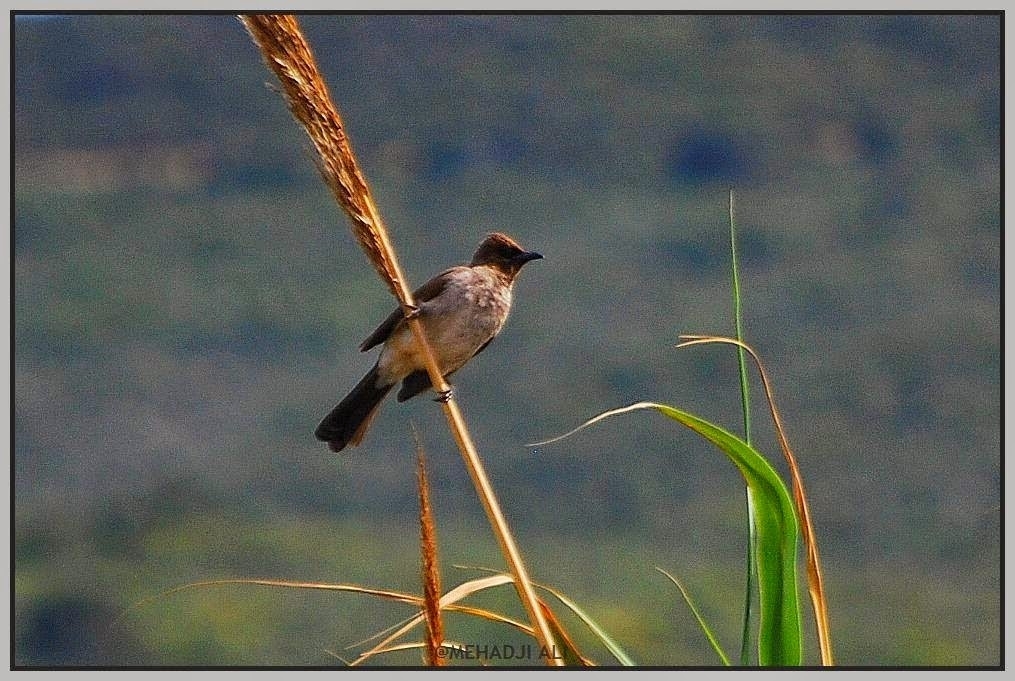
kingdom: Animalia
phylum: Chordata
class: Aves
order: Passeriformes
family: Pycnonotidae
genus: Pycnonotus
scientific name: Pycnonotus barbatus
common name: Common bulbul
